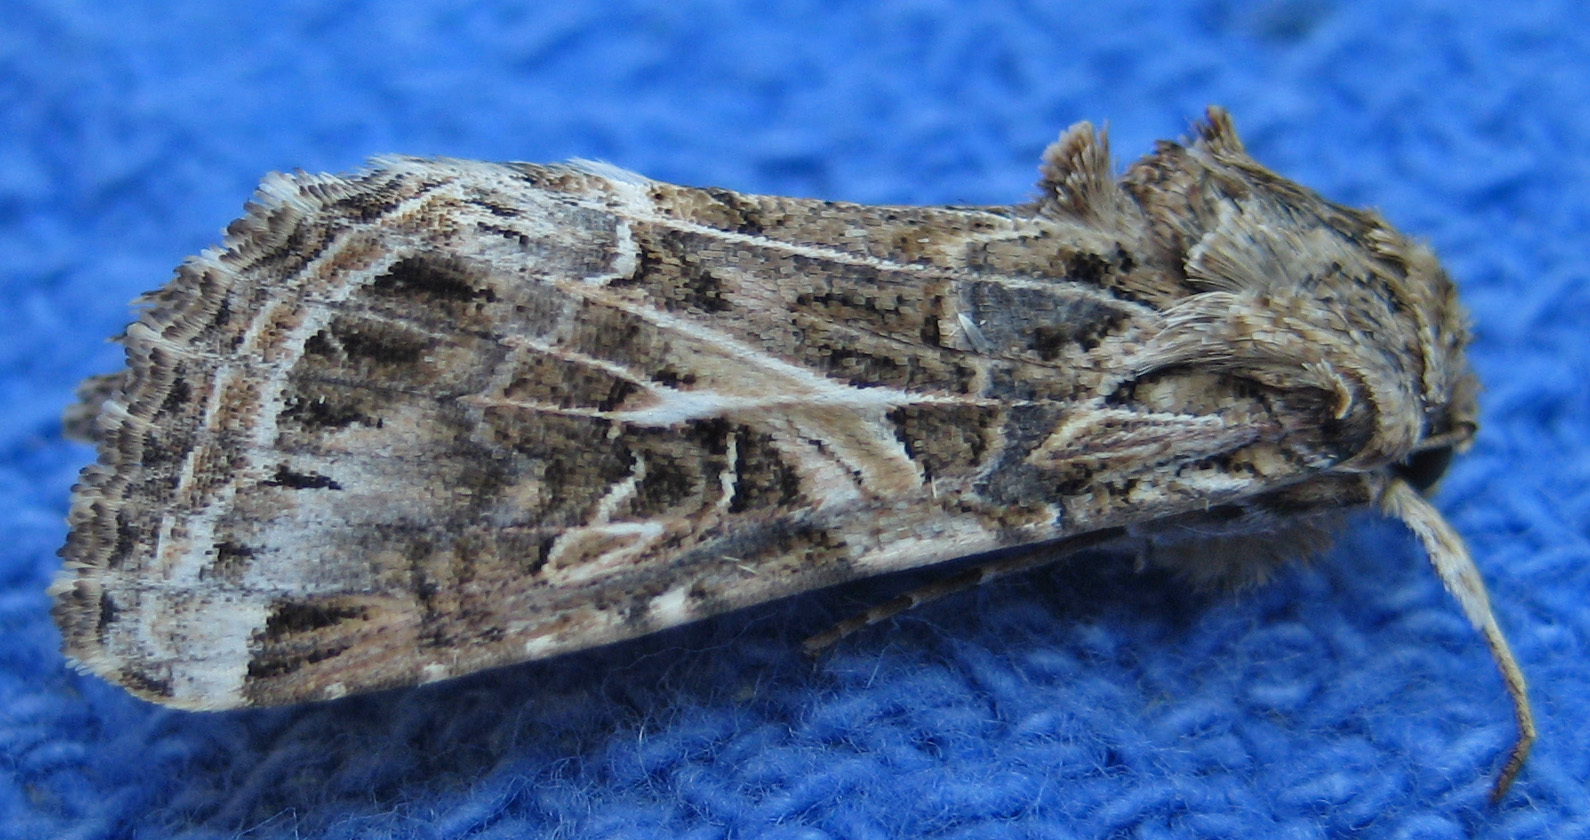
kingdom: Animalia
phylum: Arthropoda
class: Insecta
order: Lepidoptera
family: Noctuidae
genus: Spodoptera
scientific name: Spodoptera ornithogalli
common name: Yellow-striped armyworm
